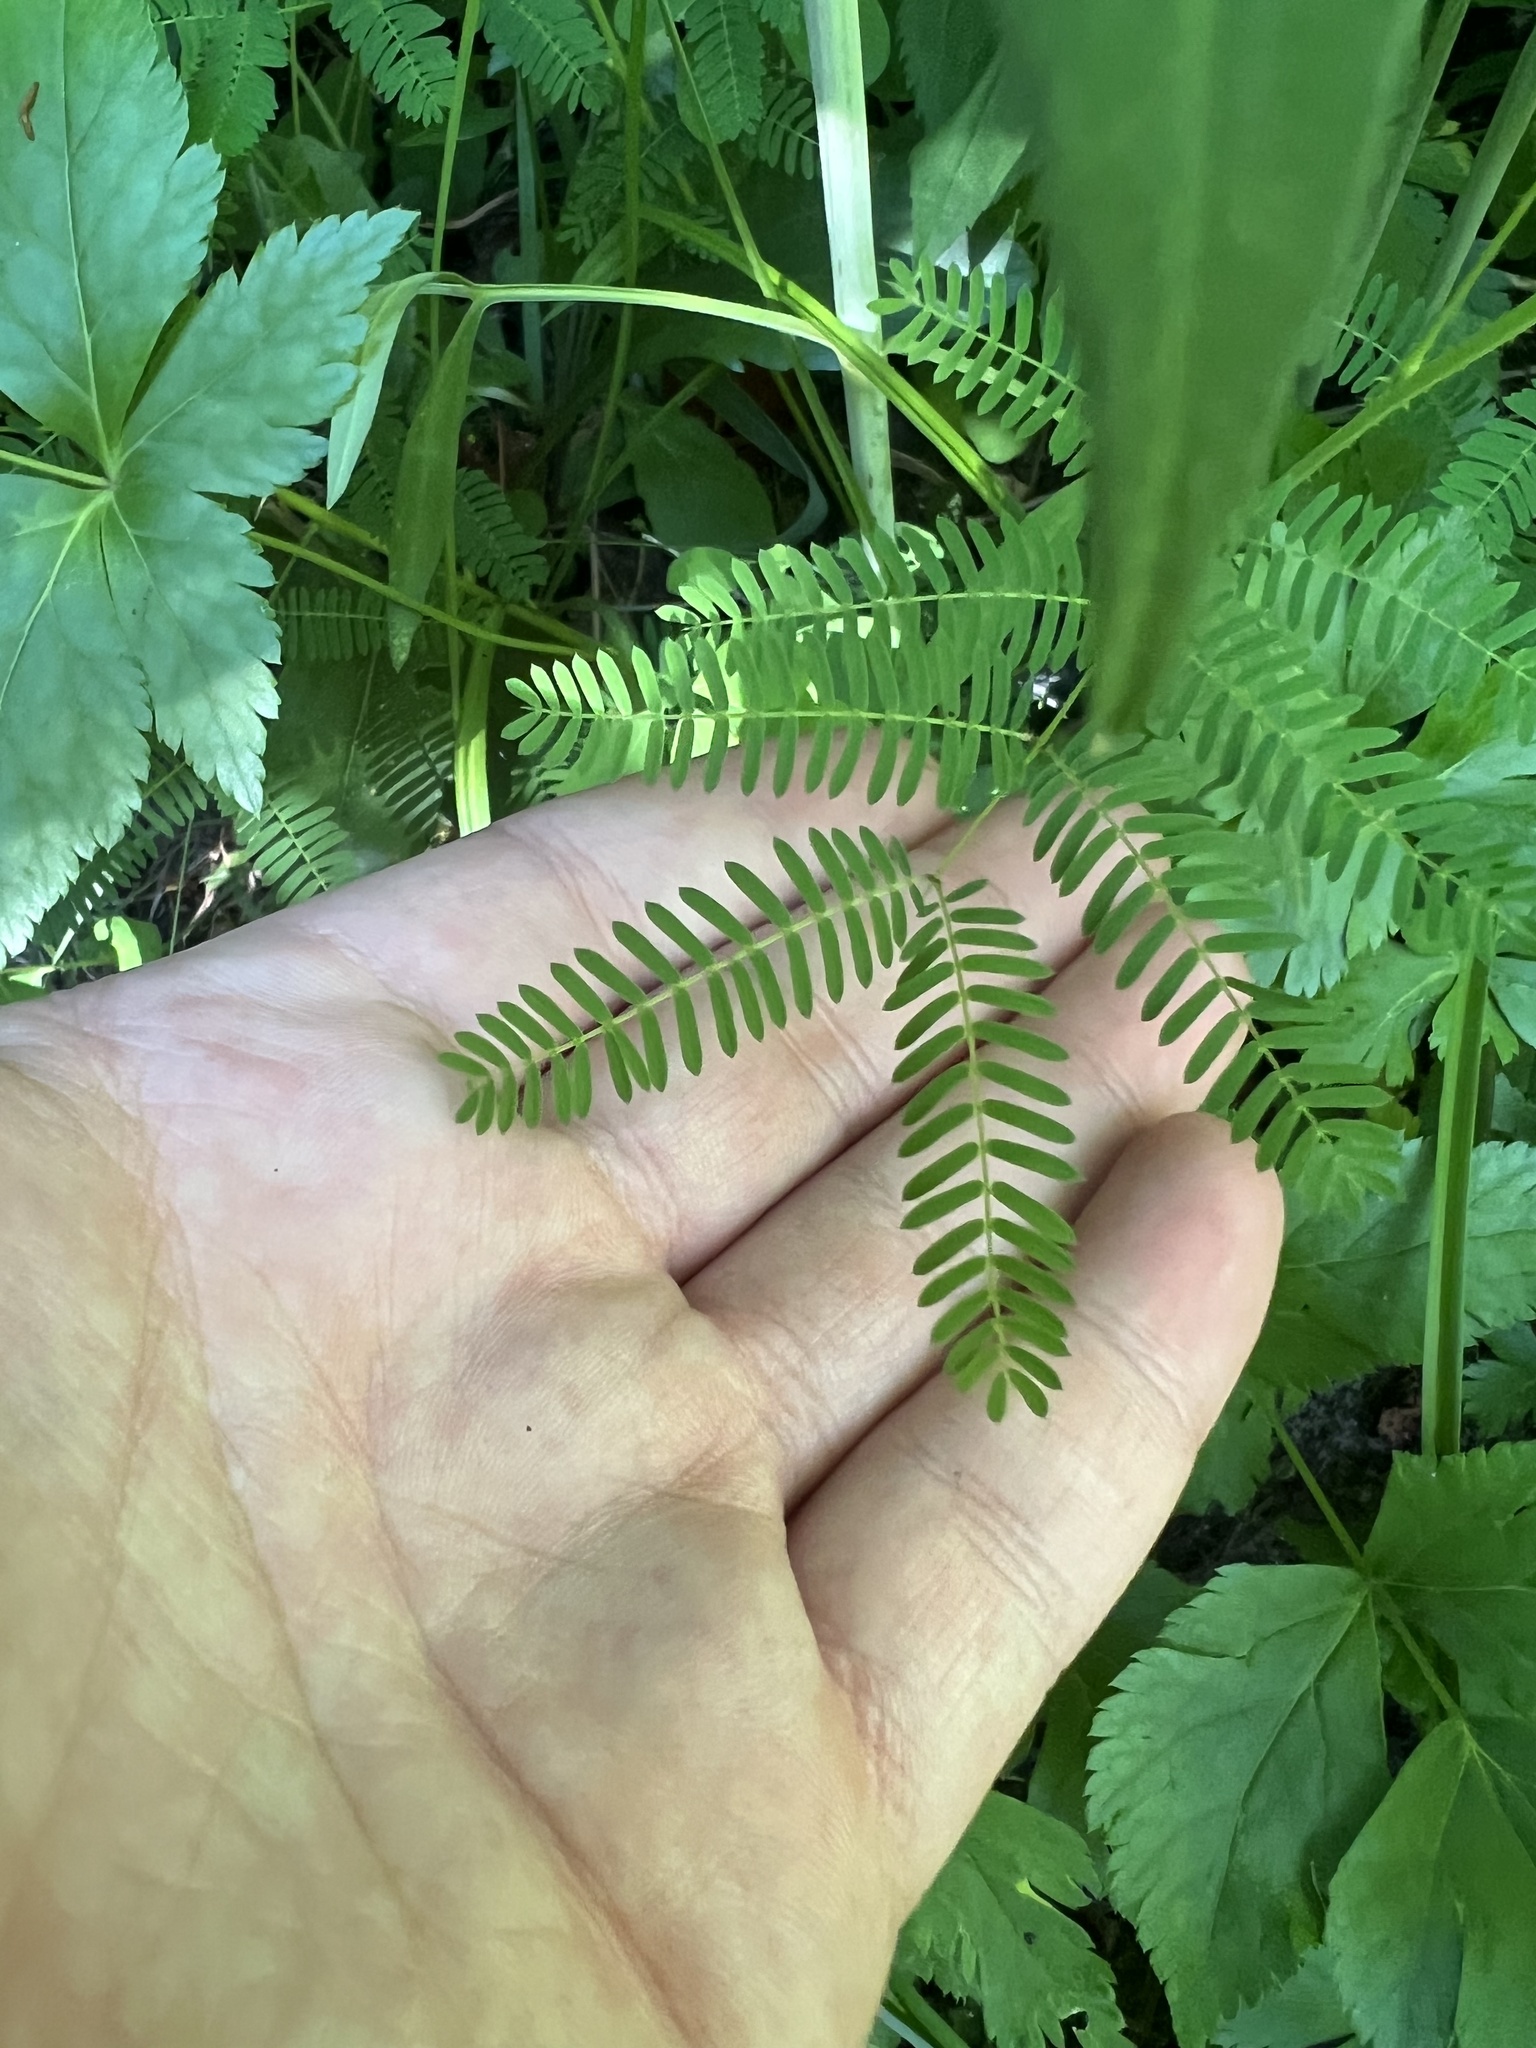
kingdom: Plantae
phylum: Tracheophyta
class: Magnoliopsida
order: Fabales
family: Fabaceae
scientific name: Fabaceae
